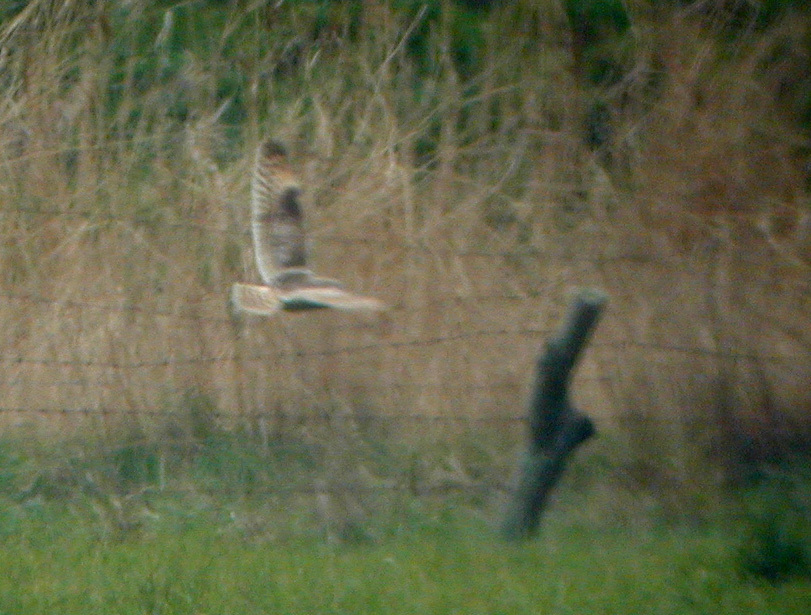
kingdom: Animalia
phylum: Chordata
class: Aves
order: Strigiformes
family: Strigidae
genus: Asio
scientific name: Asio flammeus
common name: Short-eared owl
